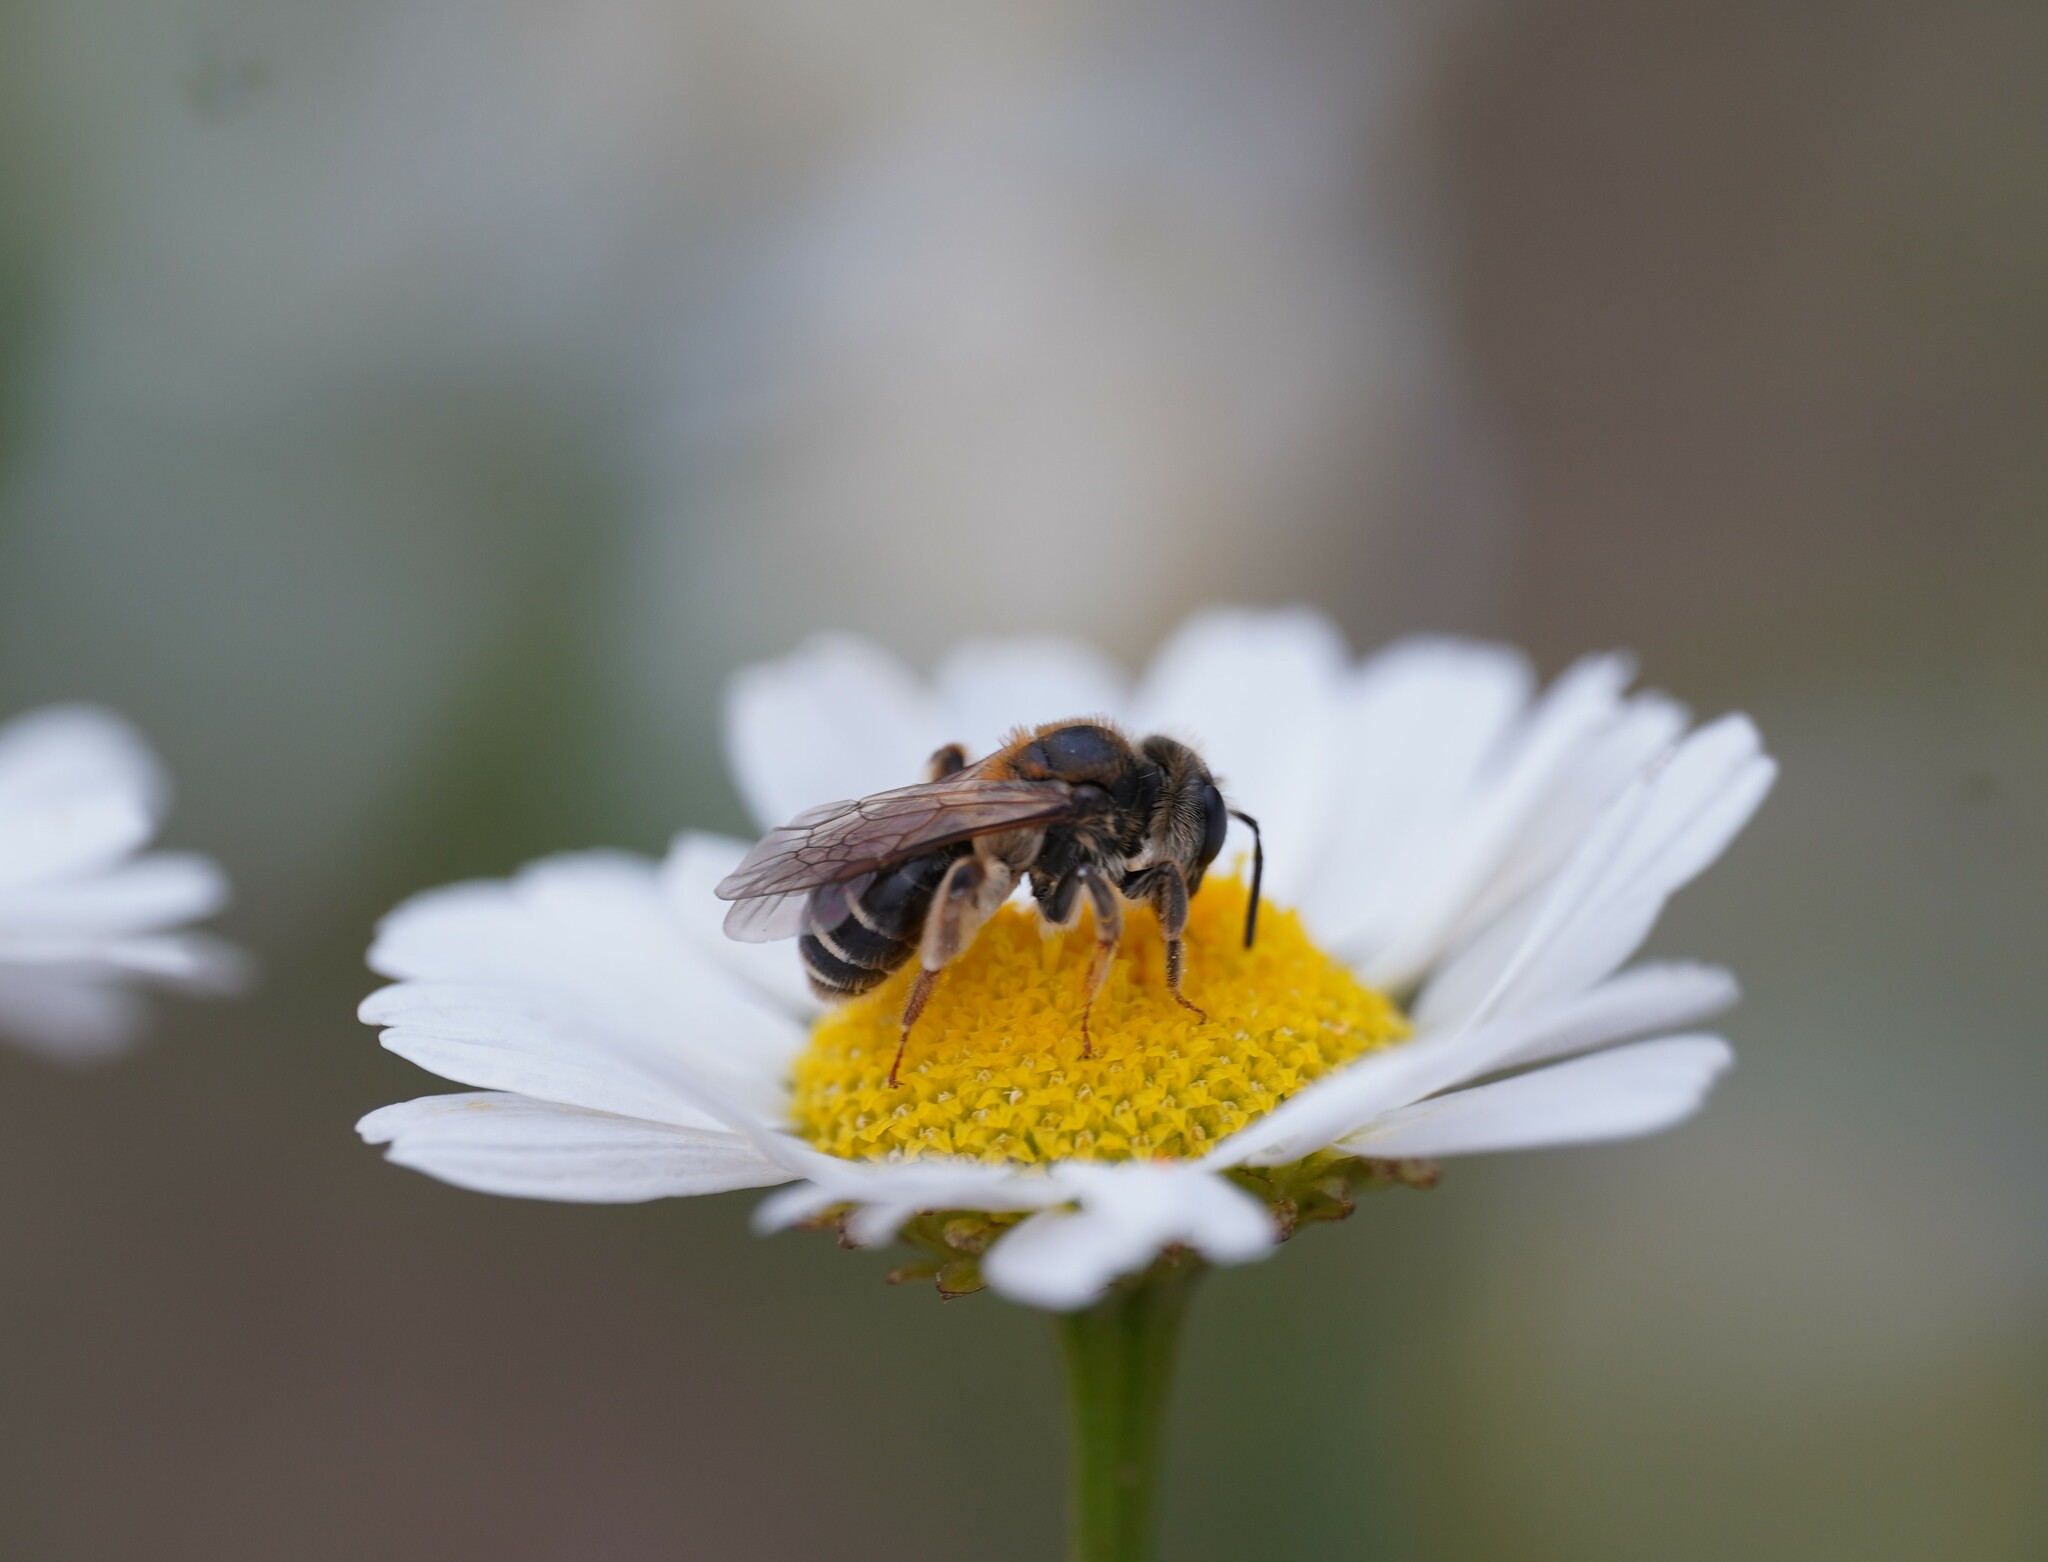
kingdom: Animalia
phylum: Arthropoda
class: Insecta
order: Hymenoptera
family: Andrenidae
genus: Andrena
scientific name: Andrena dorsata
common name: Short-fringed mining bee
